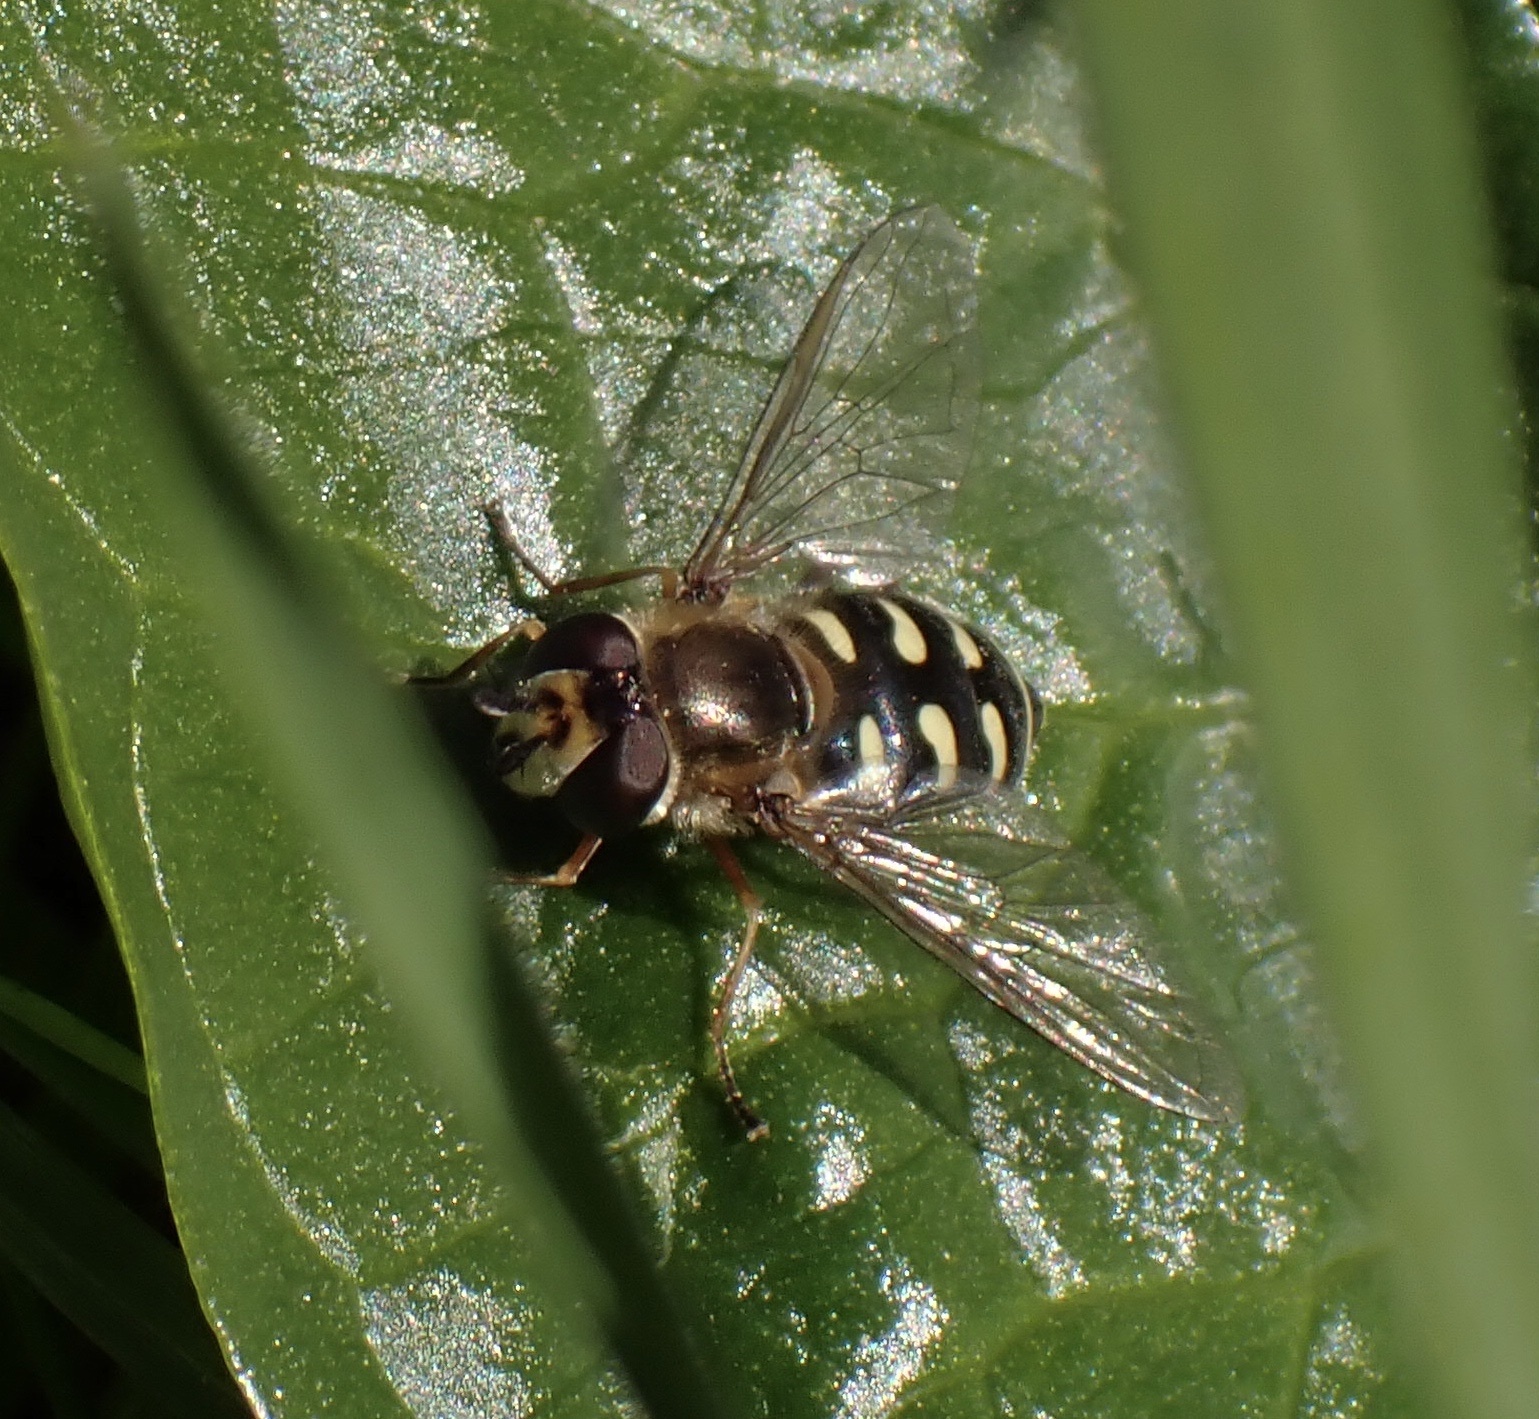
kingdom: Animalia
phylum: Arthropoda
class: Insecta
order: Diptera
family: Syrphidae
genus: Eupeodes
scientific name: Eupeodes
